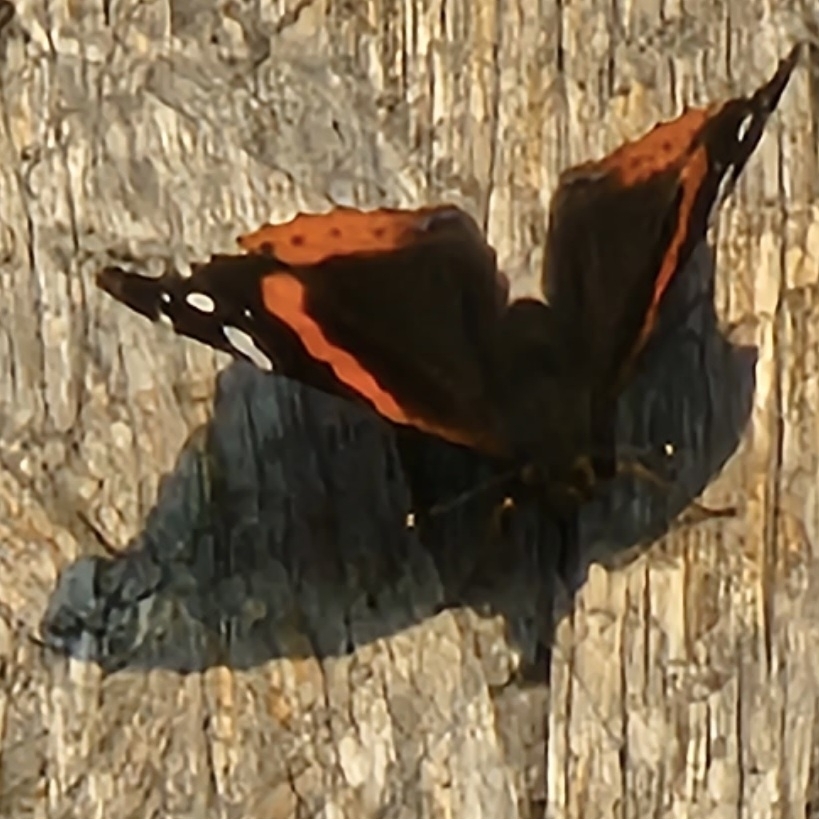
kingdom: Animalia
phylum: Arthropoda
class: Insecta
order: Lepidoptera
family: Nymphalidae
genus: Vanessa
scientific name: Vanessa atalanta
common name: Red admiral
